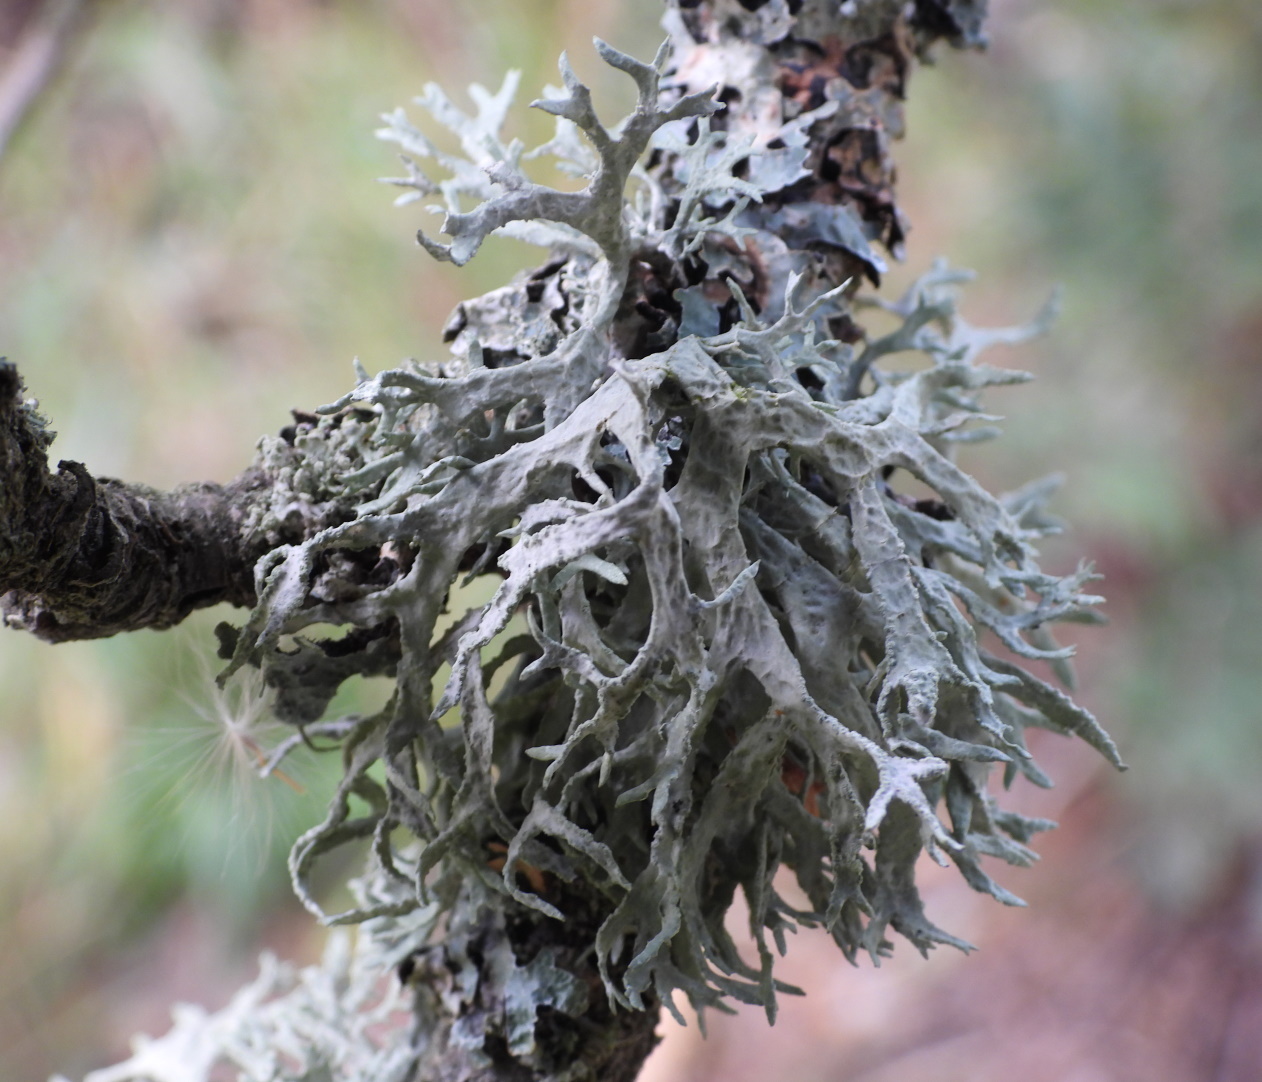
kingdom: Fungi
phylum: Ascomycota
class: Lecanoromycetes
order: Lecanorales
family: Parmeliaceae
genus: Evernia
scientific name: Evernia prunastri
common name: Oak moss
